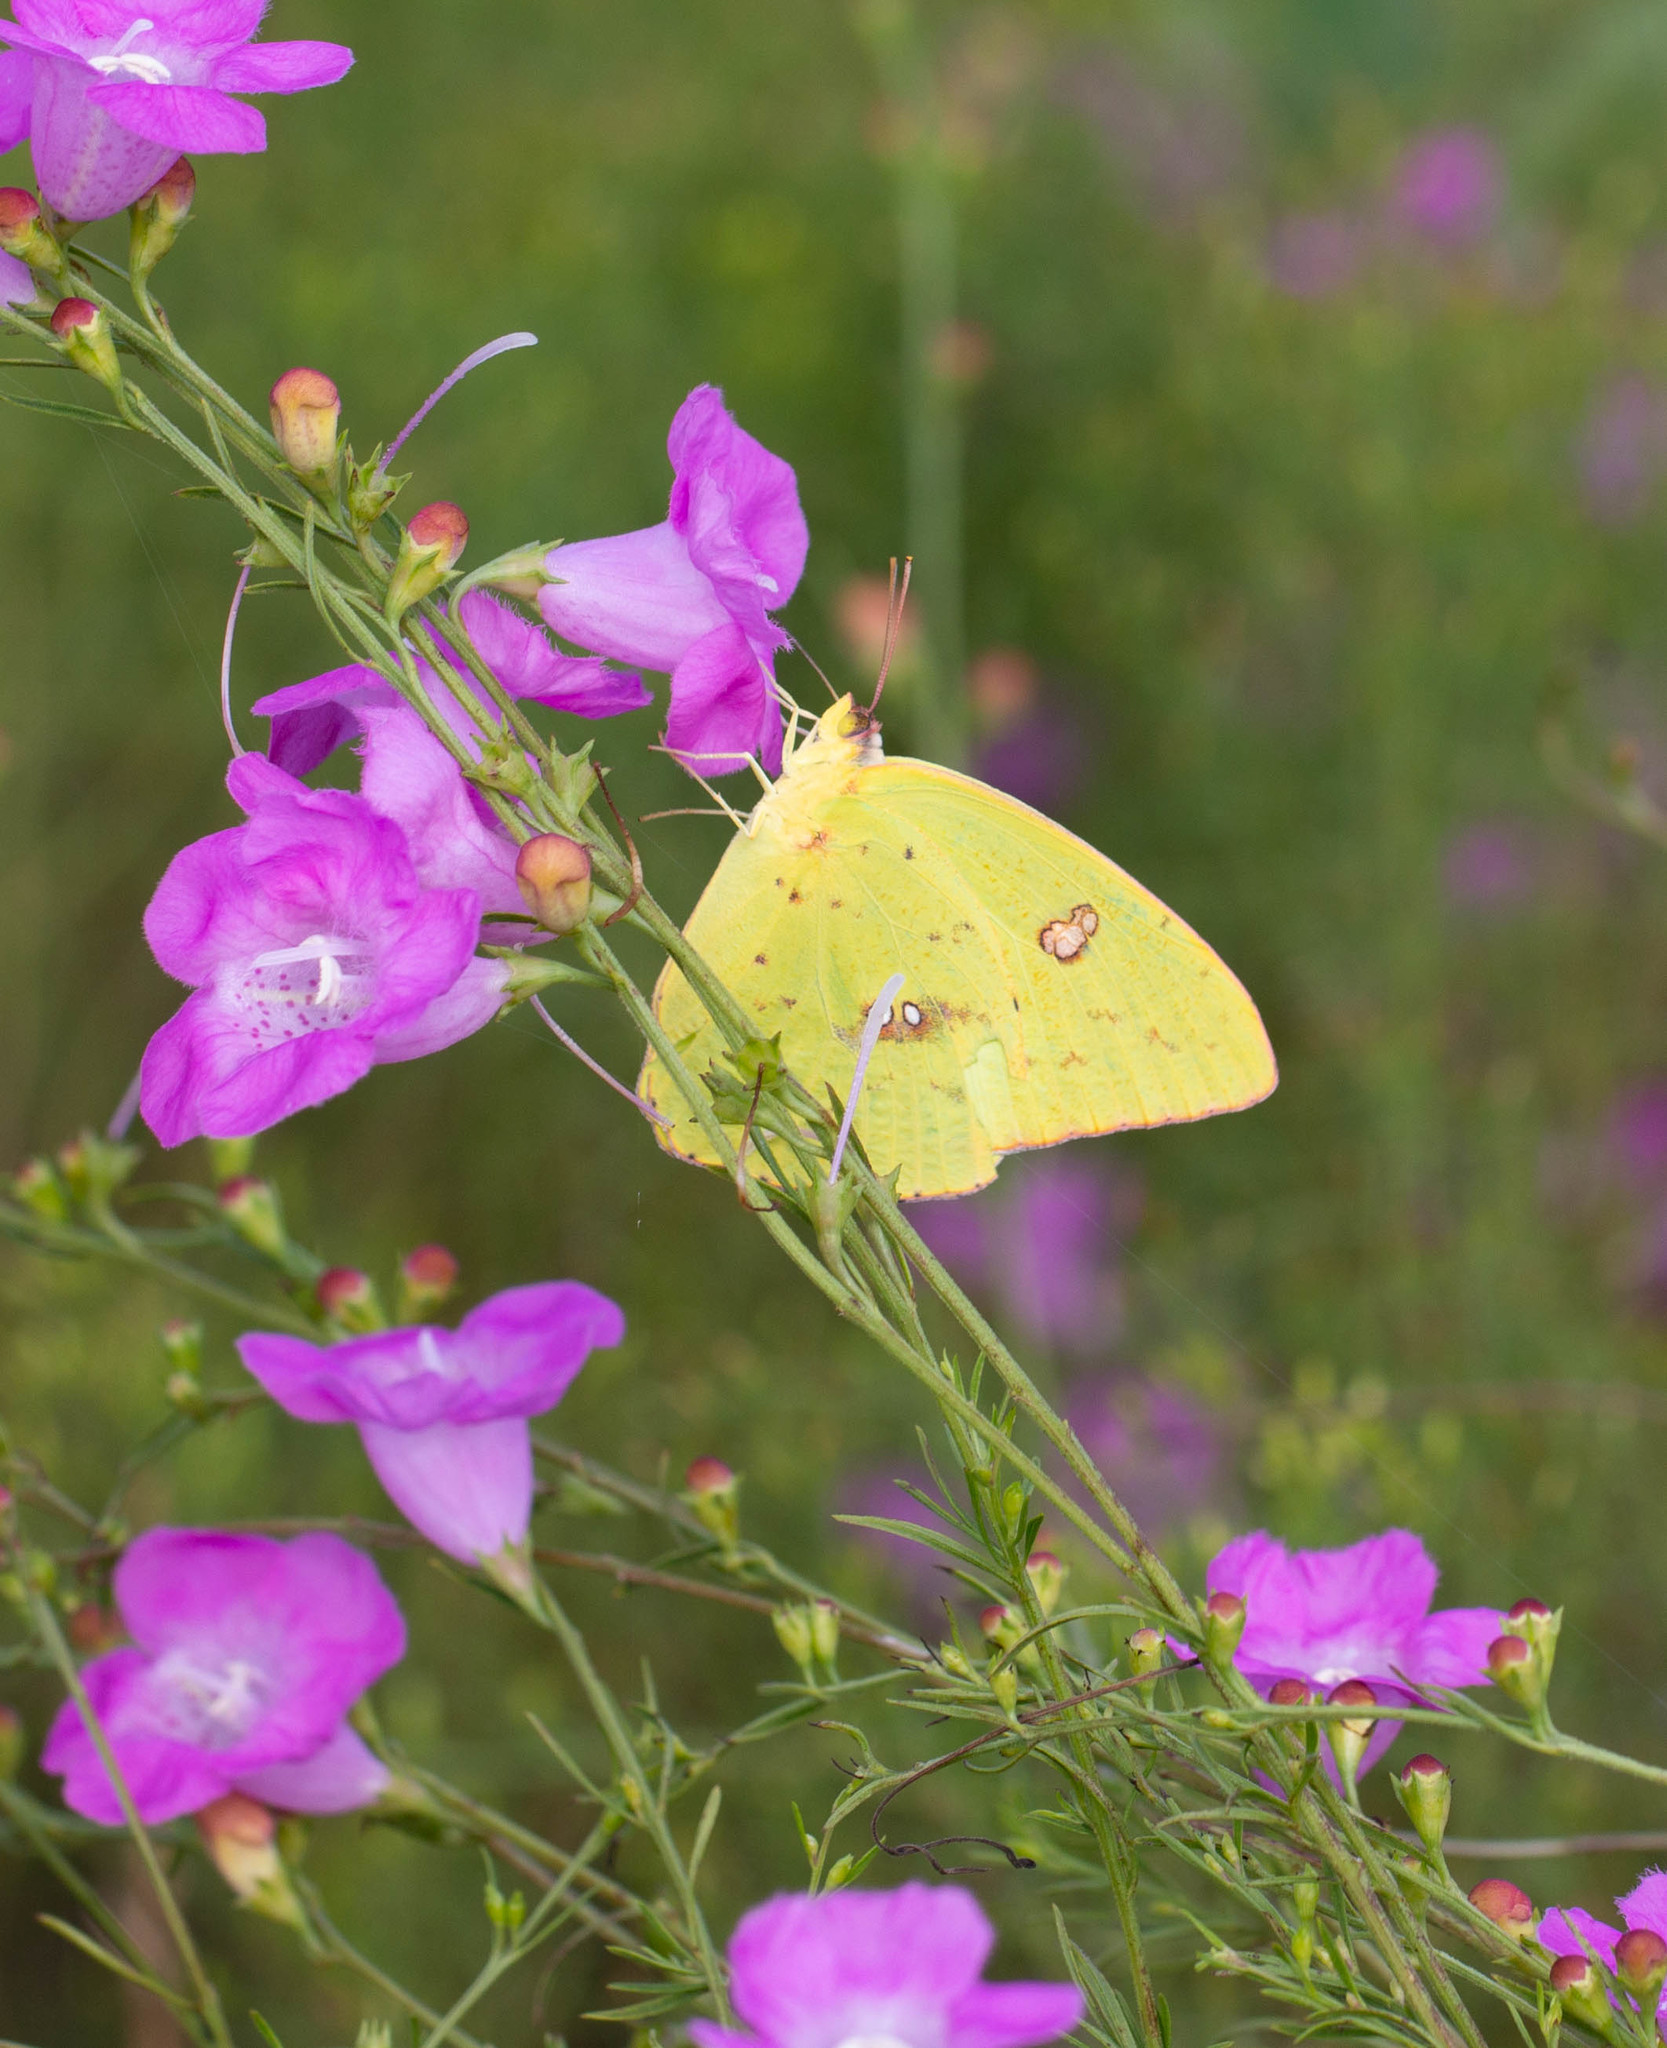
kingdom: Animalia
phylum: Arthropoda
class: Insecta
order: Lepidoptera
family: Pieridae
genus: Phoebis
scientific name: Phoebis sennae
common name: Cloudless sulphur
